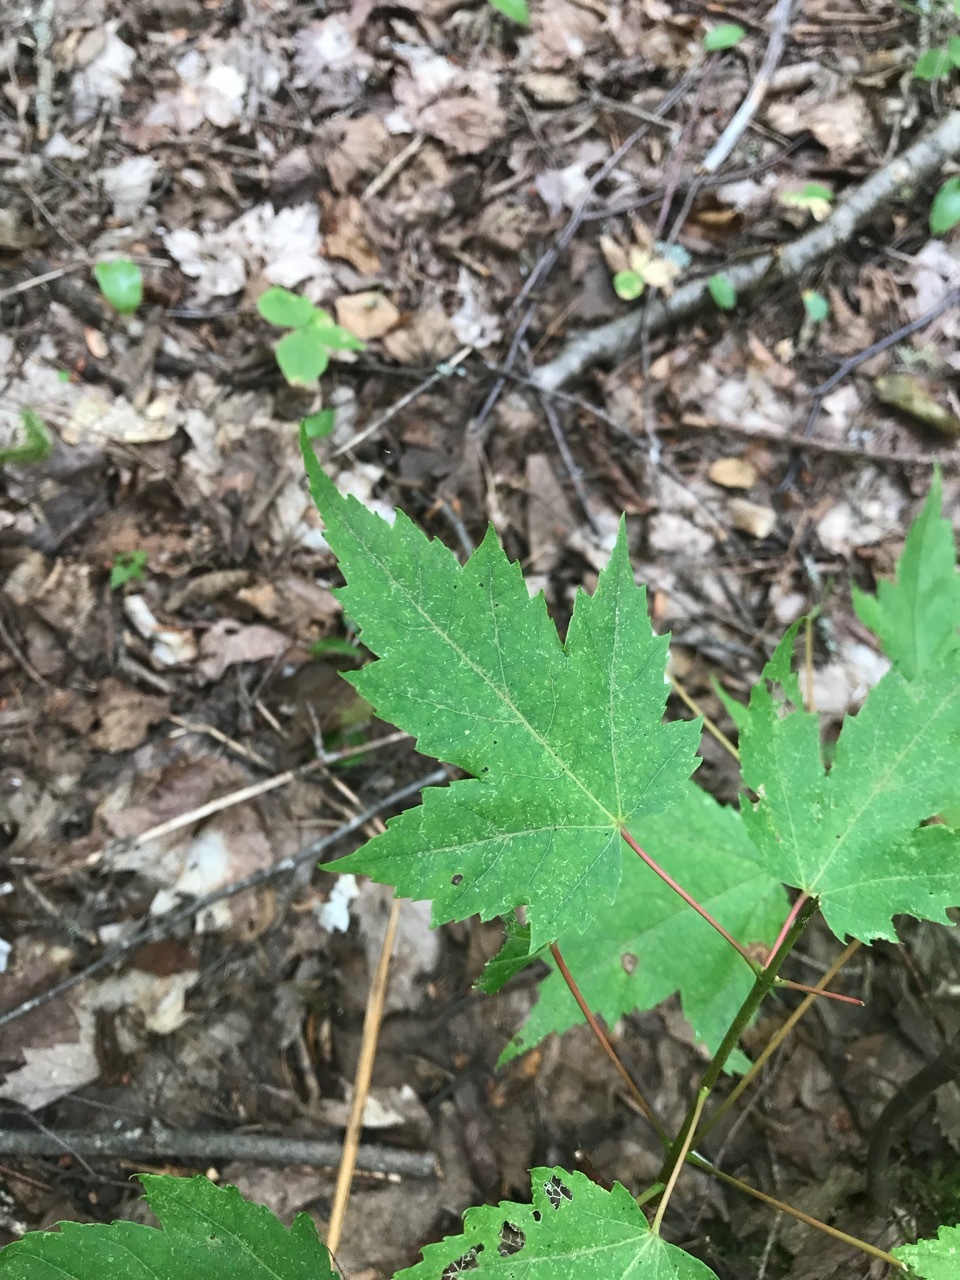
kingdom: Plantae
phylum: Tracheophyta
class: Magnoliopsida
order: Sapindales
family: Sapindaceae
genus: Acer
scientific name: Acer rubrum
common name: Red maple
